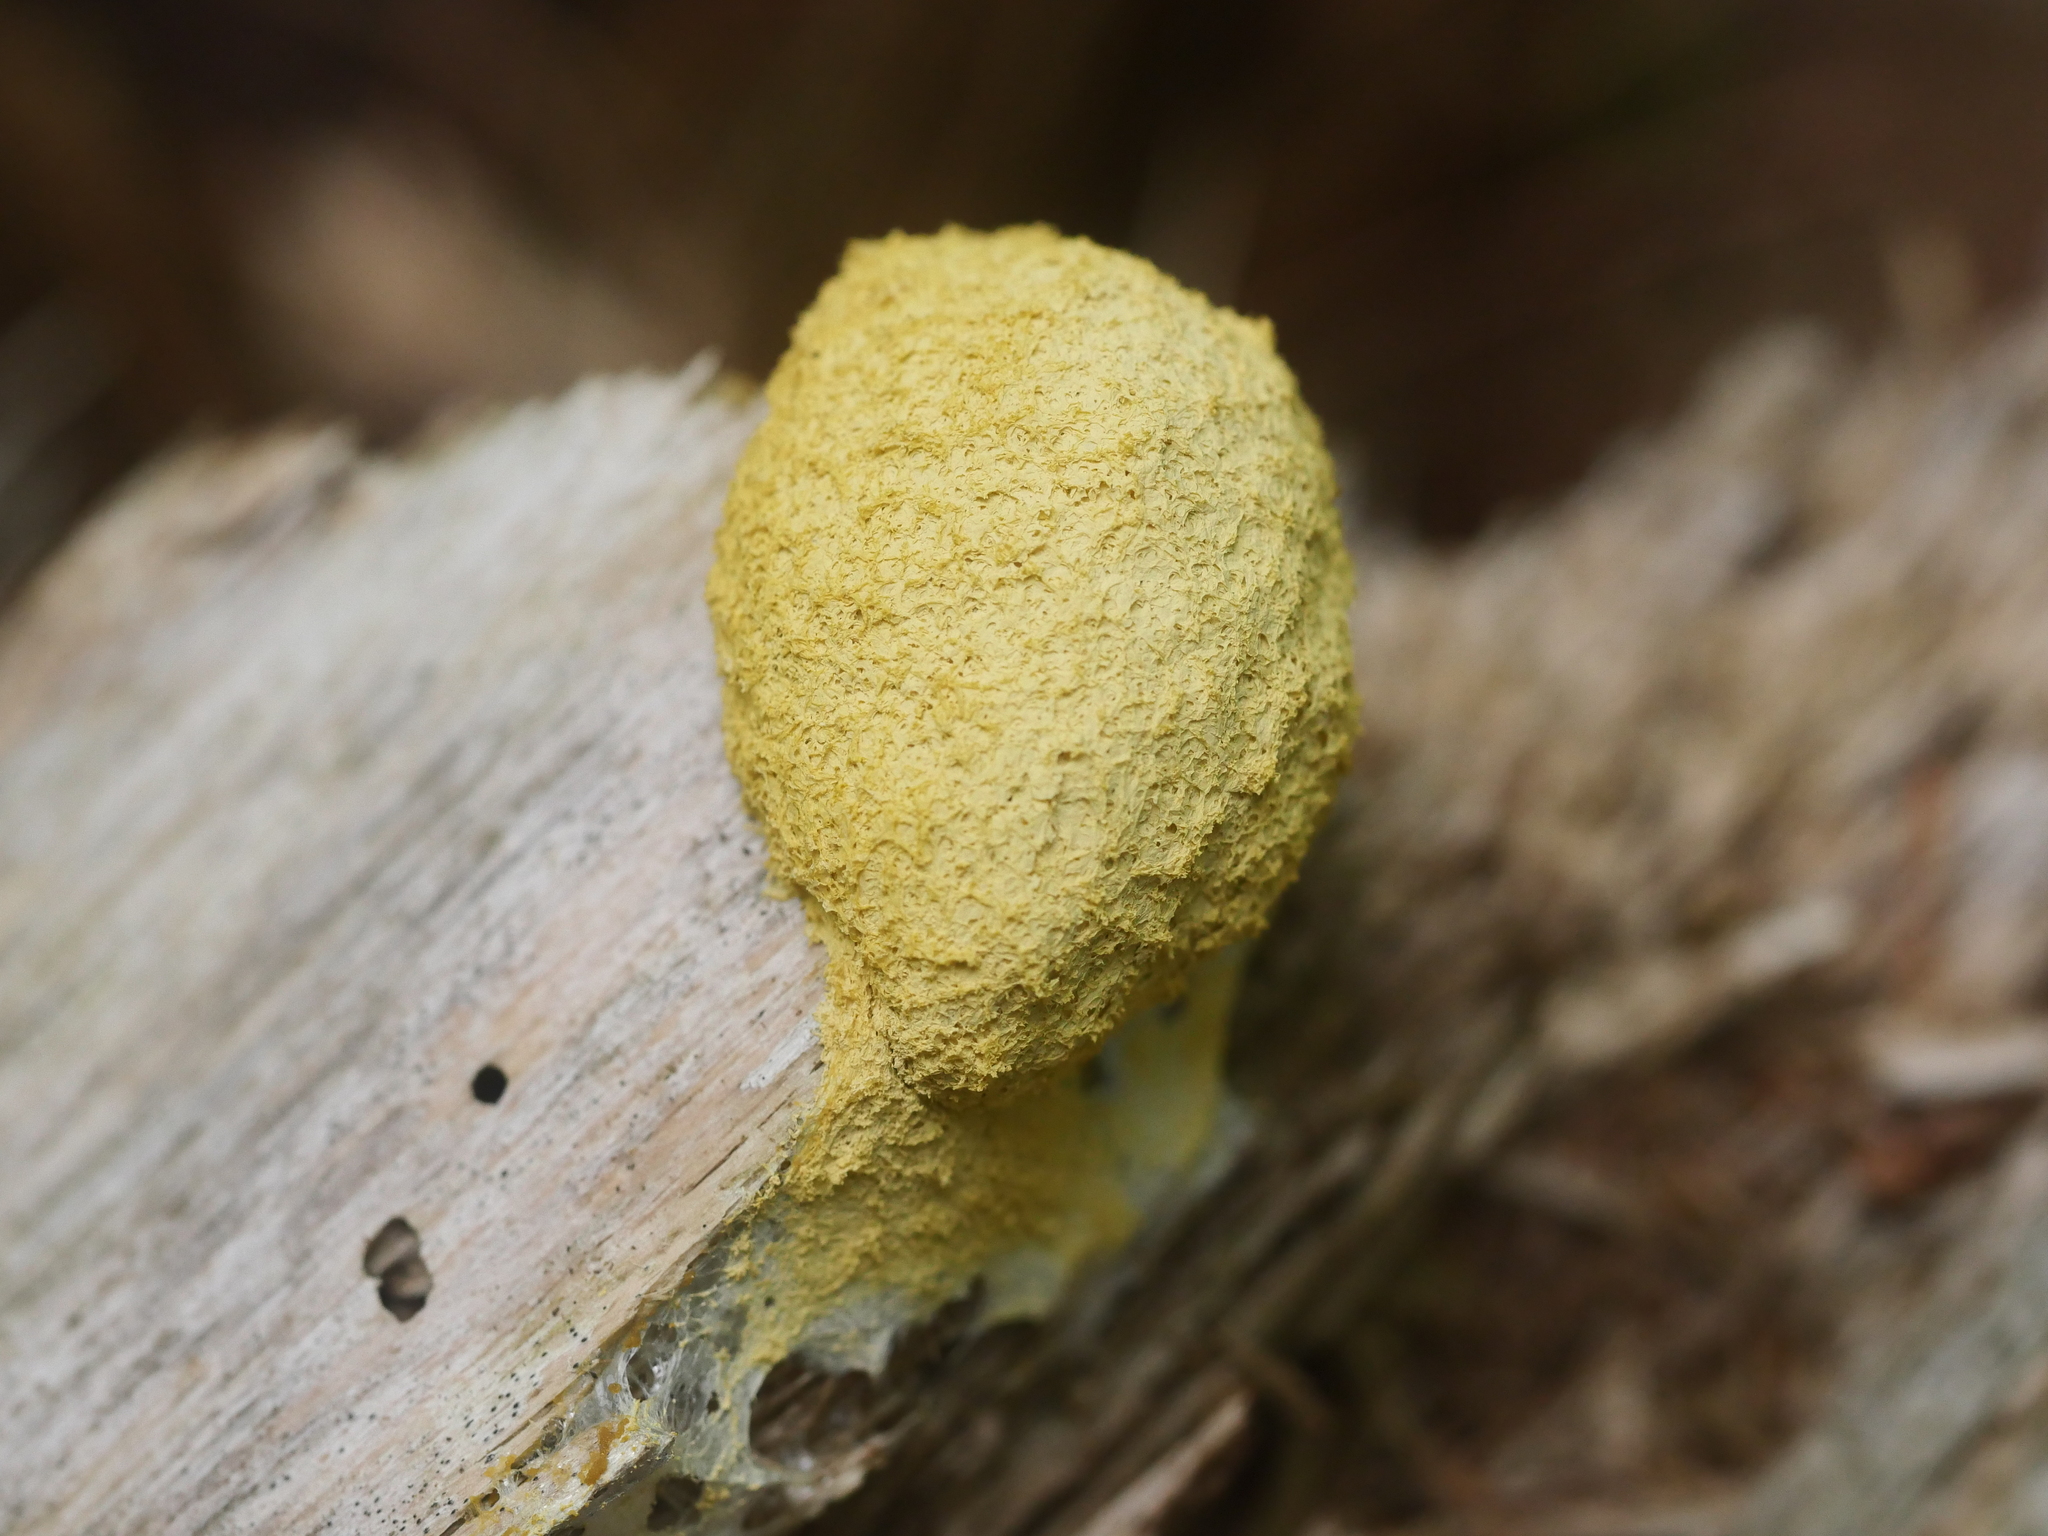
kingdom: Protozoa
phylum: Mycetozoa
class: Myxomycetes
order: Physarales
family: Physaraceae
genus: Fuligo
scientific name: Fuligo septica
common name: Dog vomit slime mold
